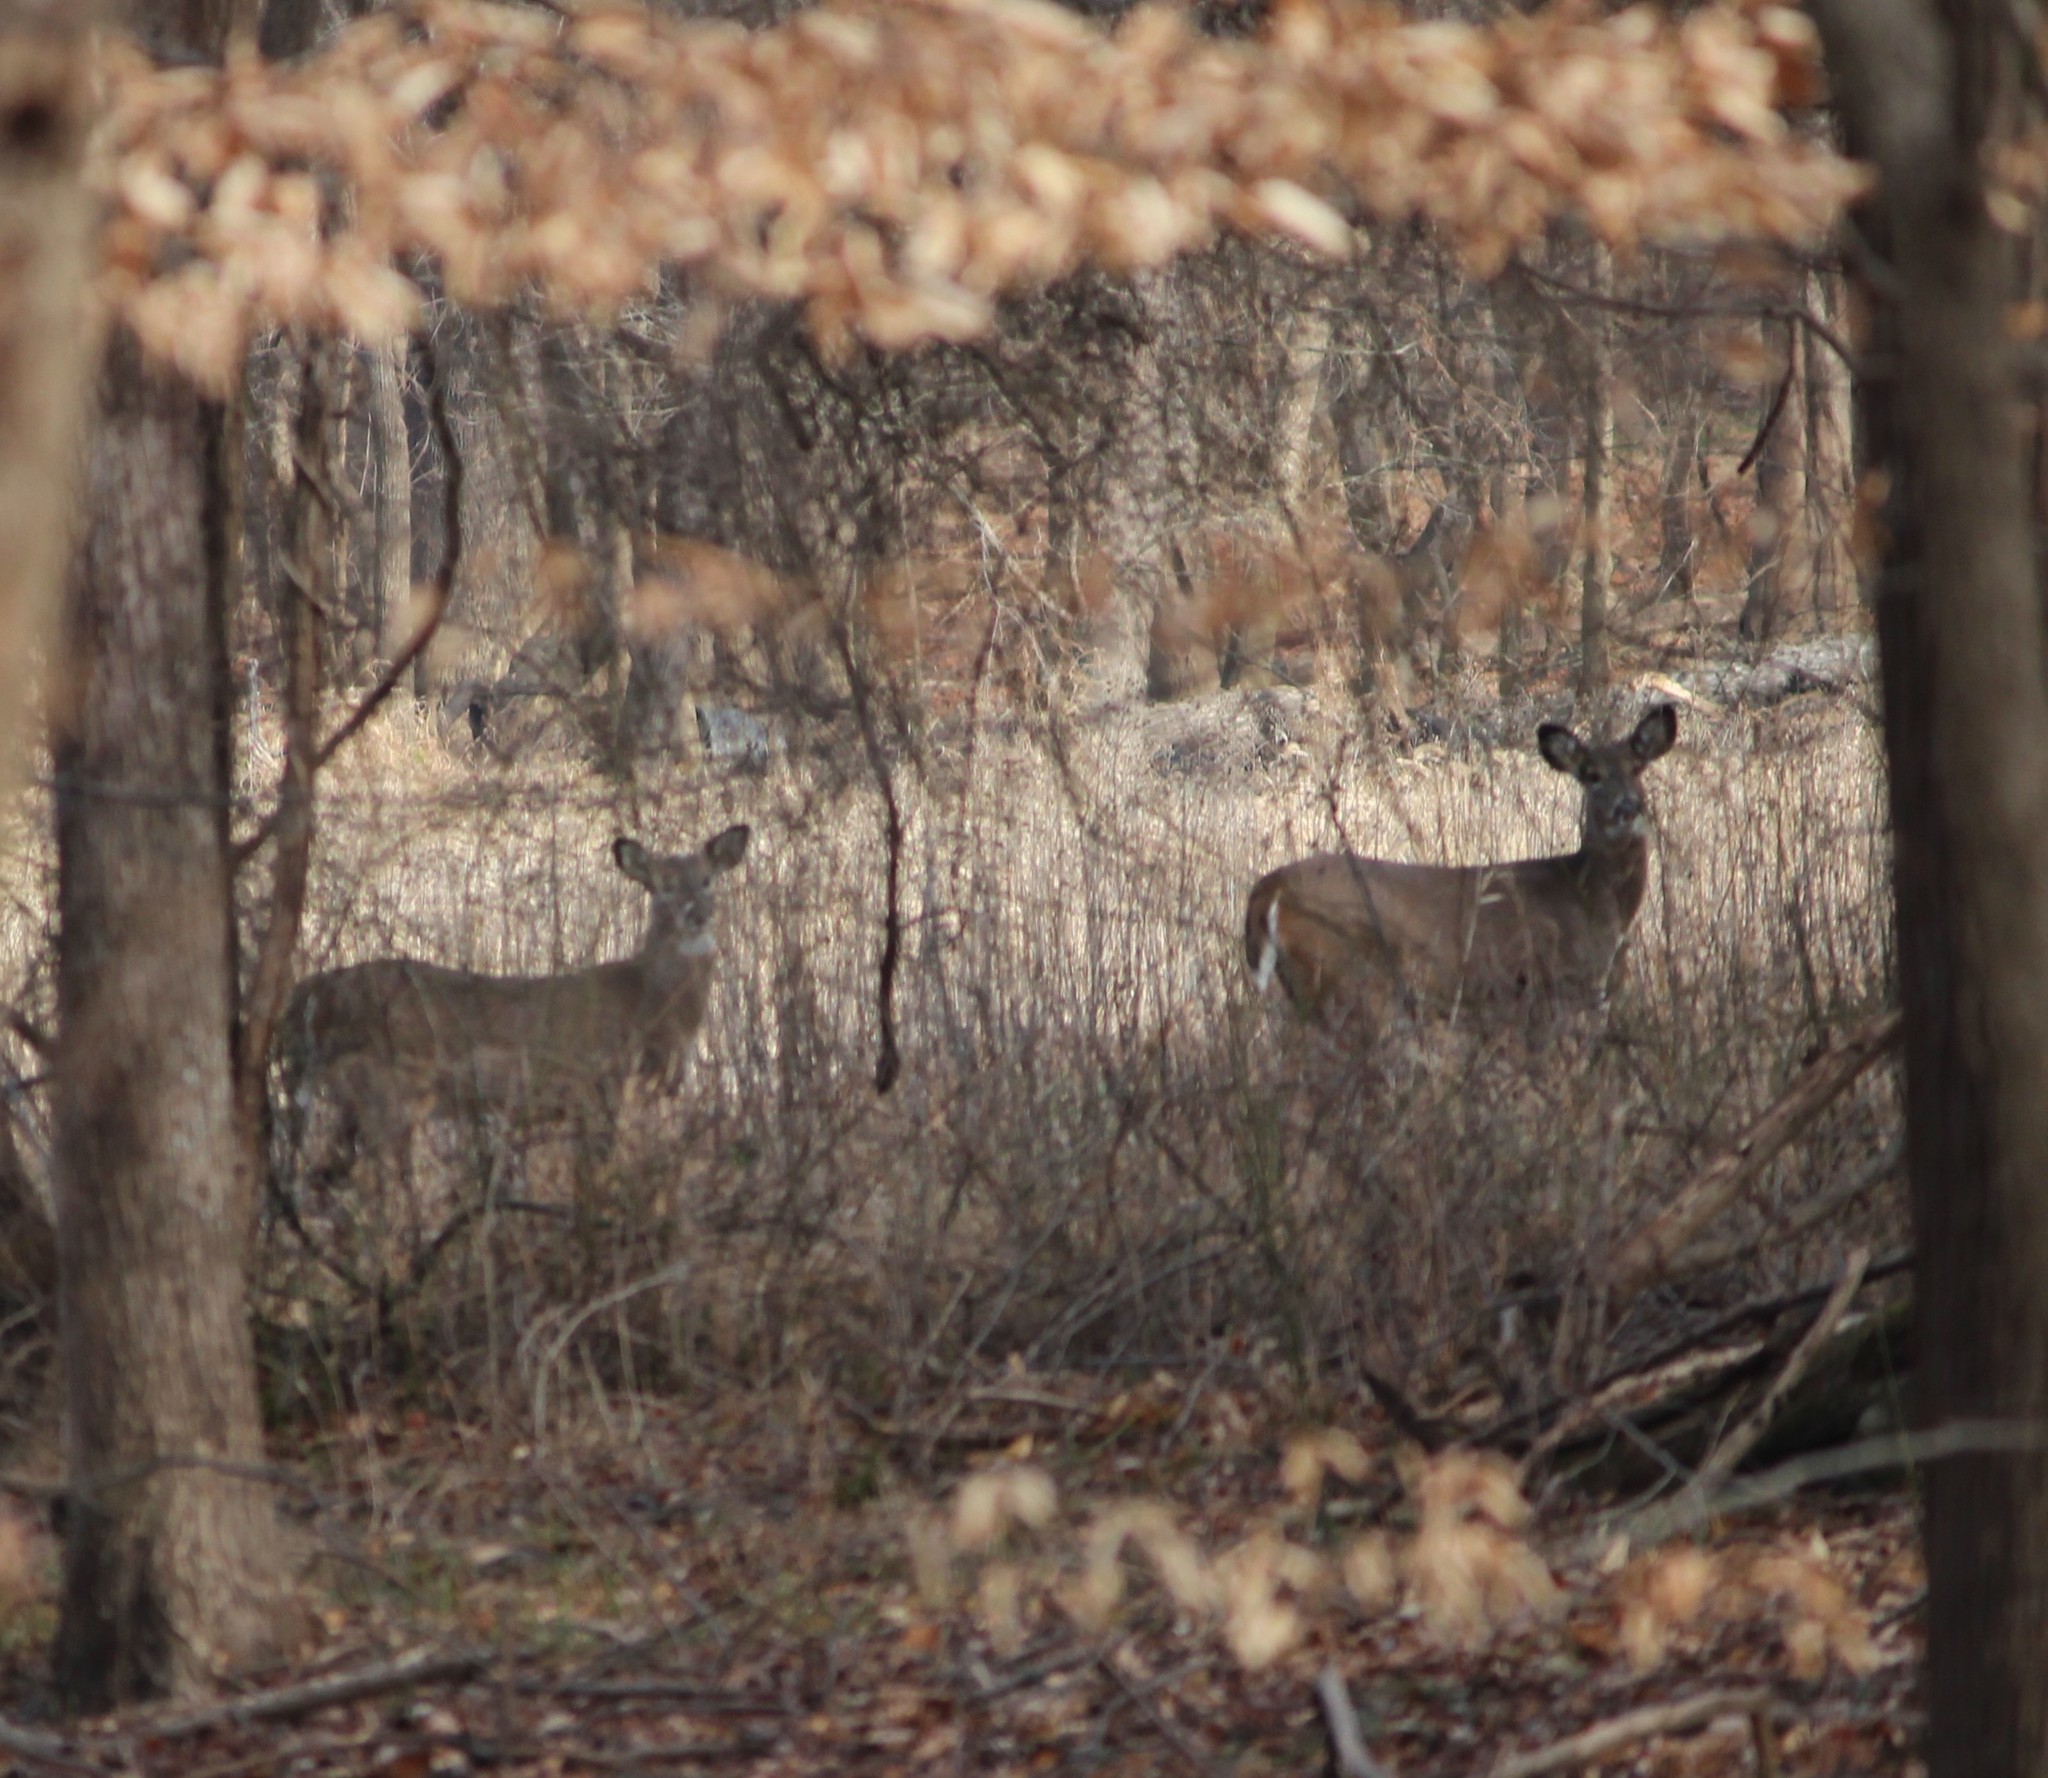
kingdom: Animalia
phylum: Chordata
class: Mammalia
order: Artiodactyla
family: Cervidae
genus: Odocoileus
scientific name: Odocoileus virginianus
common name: White-tailed deer
